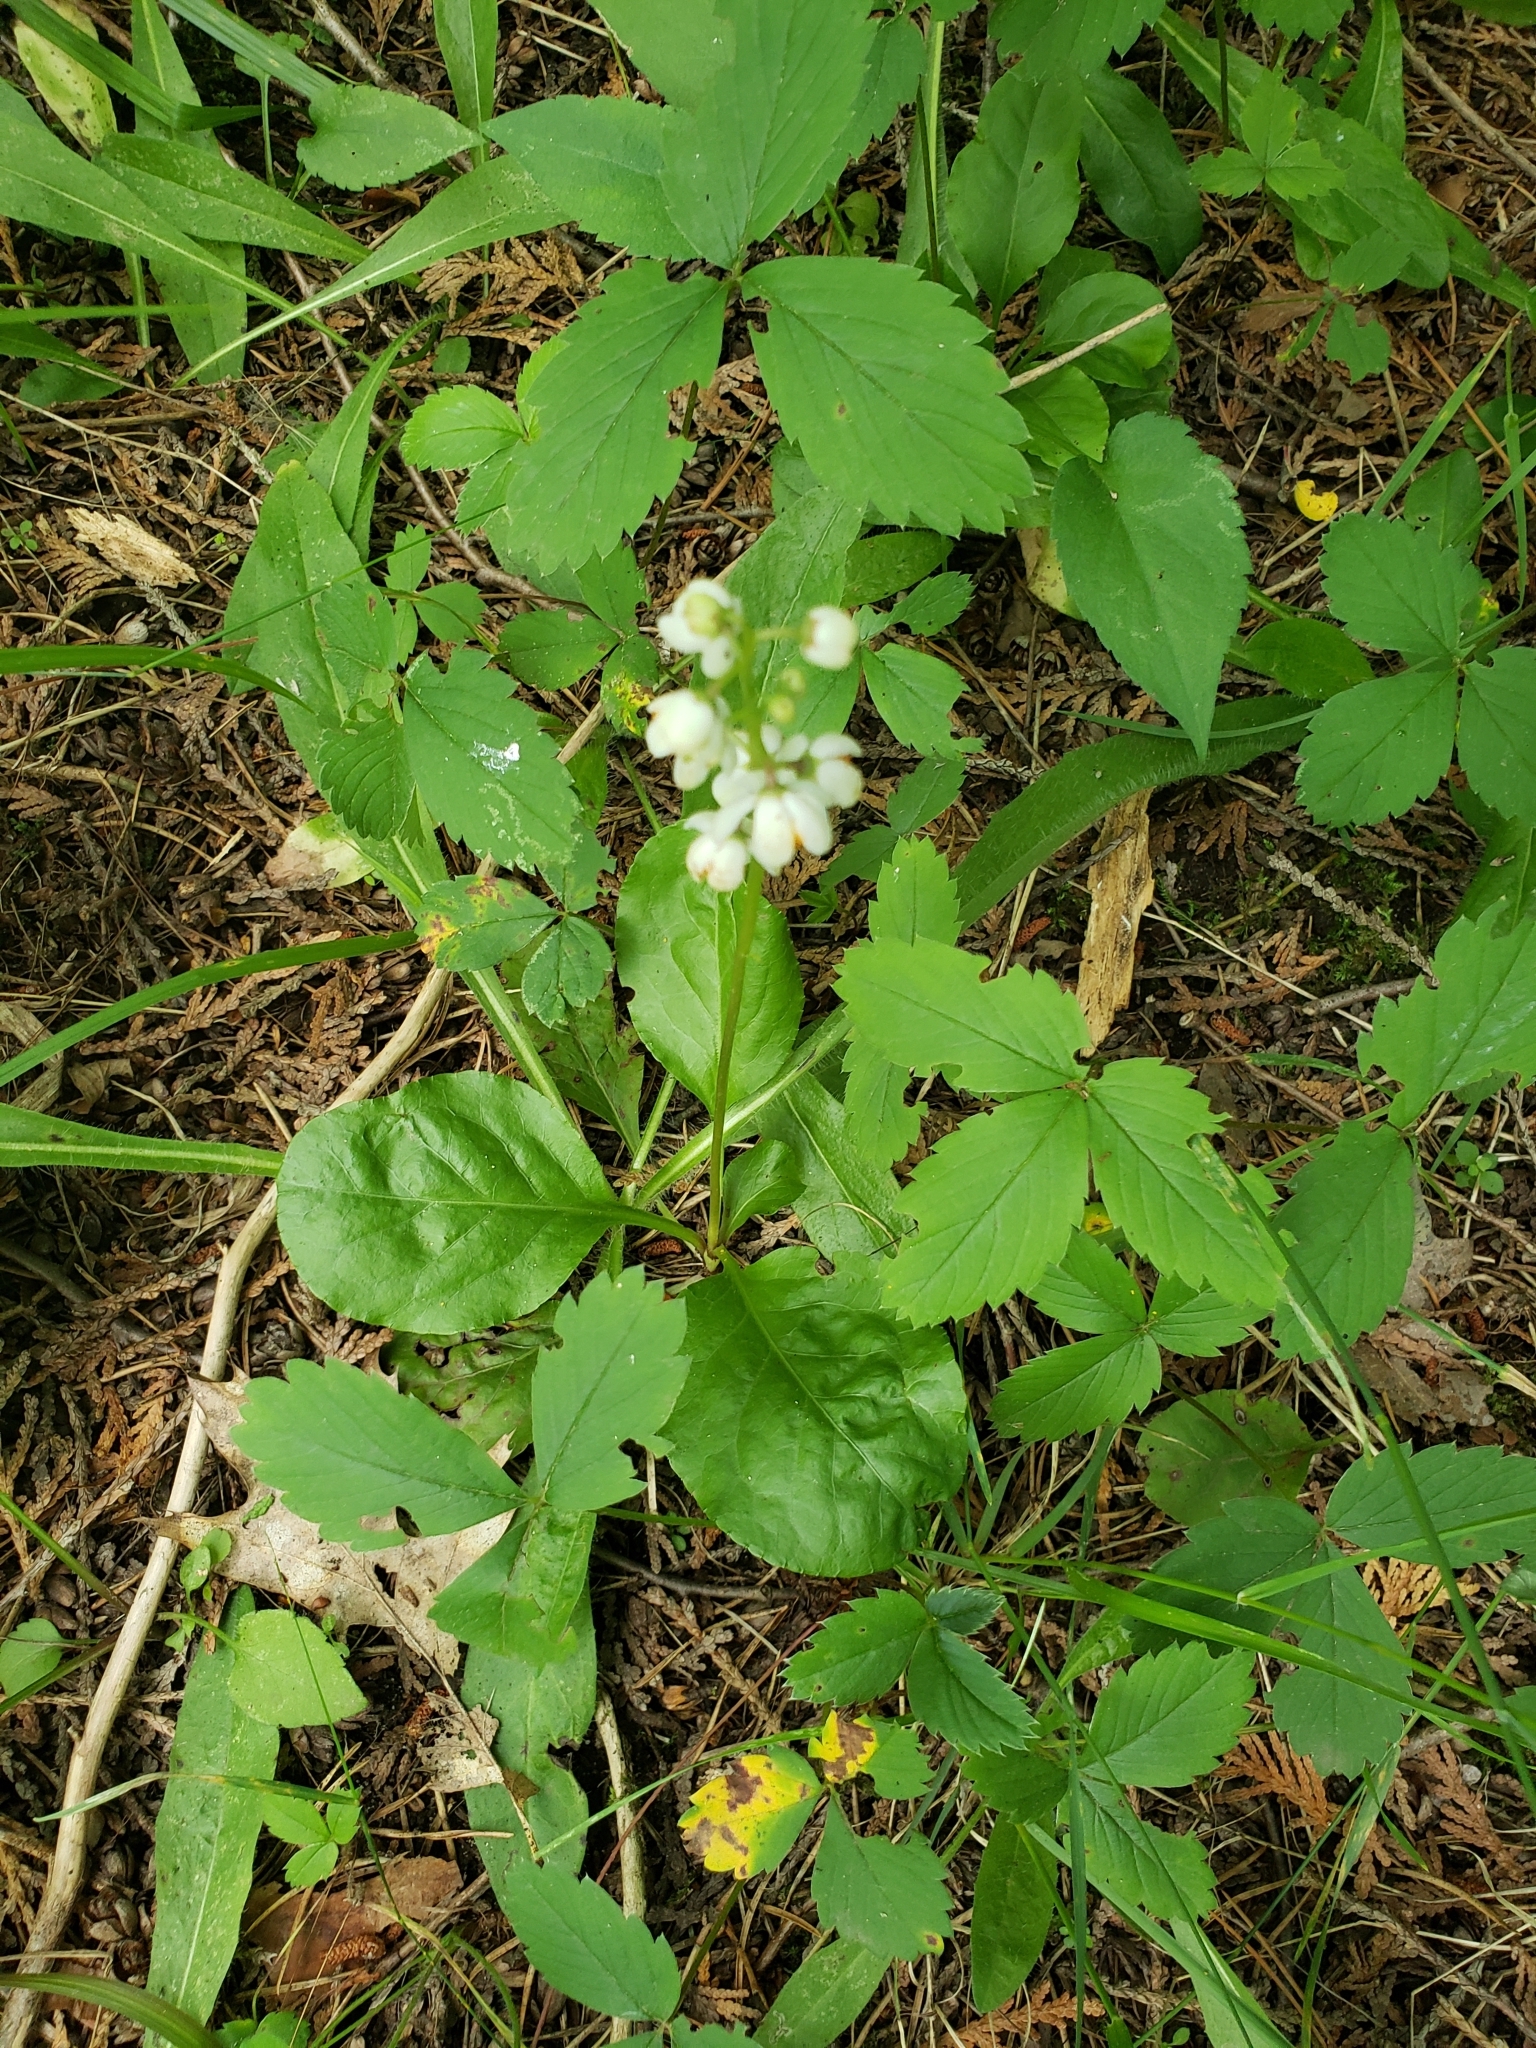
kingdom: Plantae
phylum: Tracheophyta
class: Magnoliopsida
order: Ericales
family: Ericaceae
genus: Pyrola
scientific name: Pyrola elliptica
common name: Shinleaf
